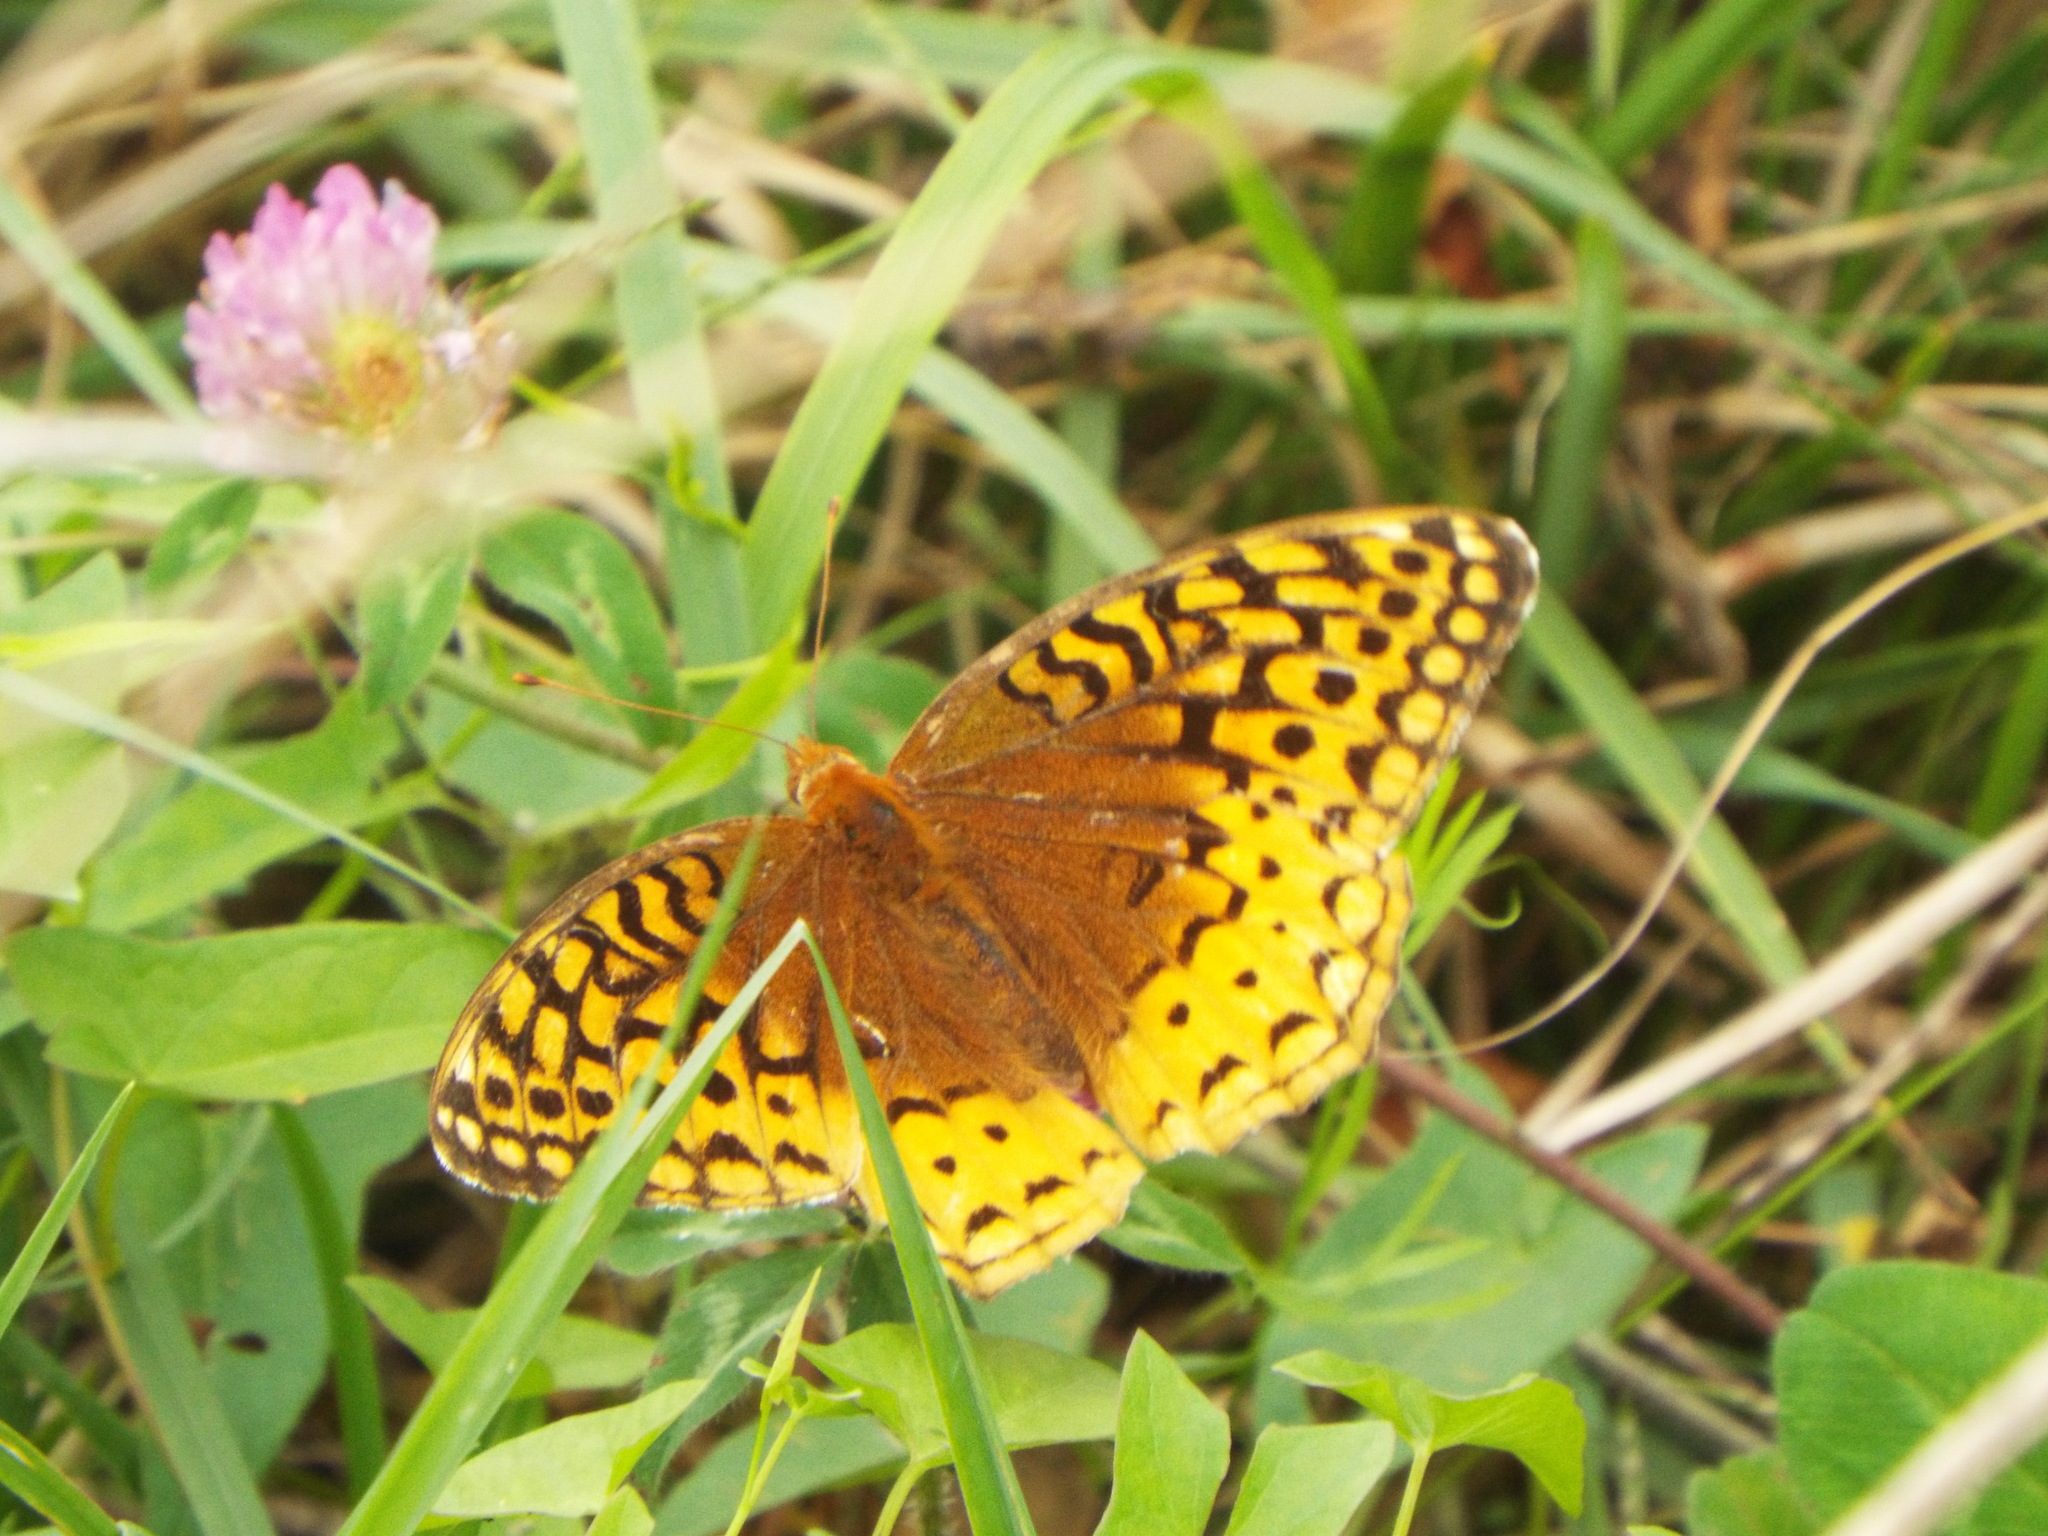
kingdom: Animalia
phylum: Arthropoda
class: Insecta
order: Lepidoptera
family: Nymphalidae
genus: Speyeria
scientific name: Speyeria cybele
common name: Great spangled fritillary
